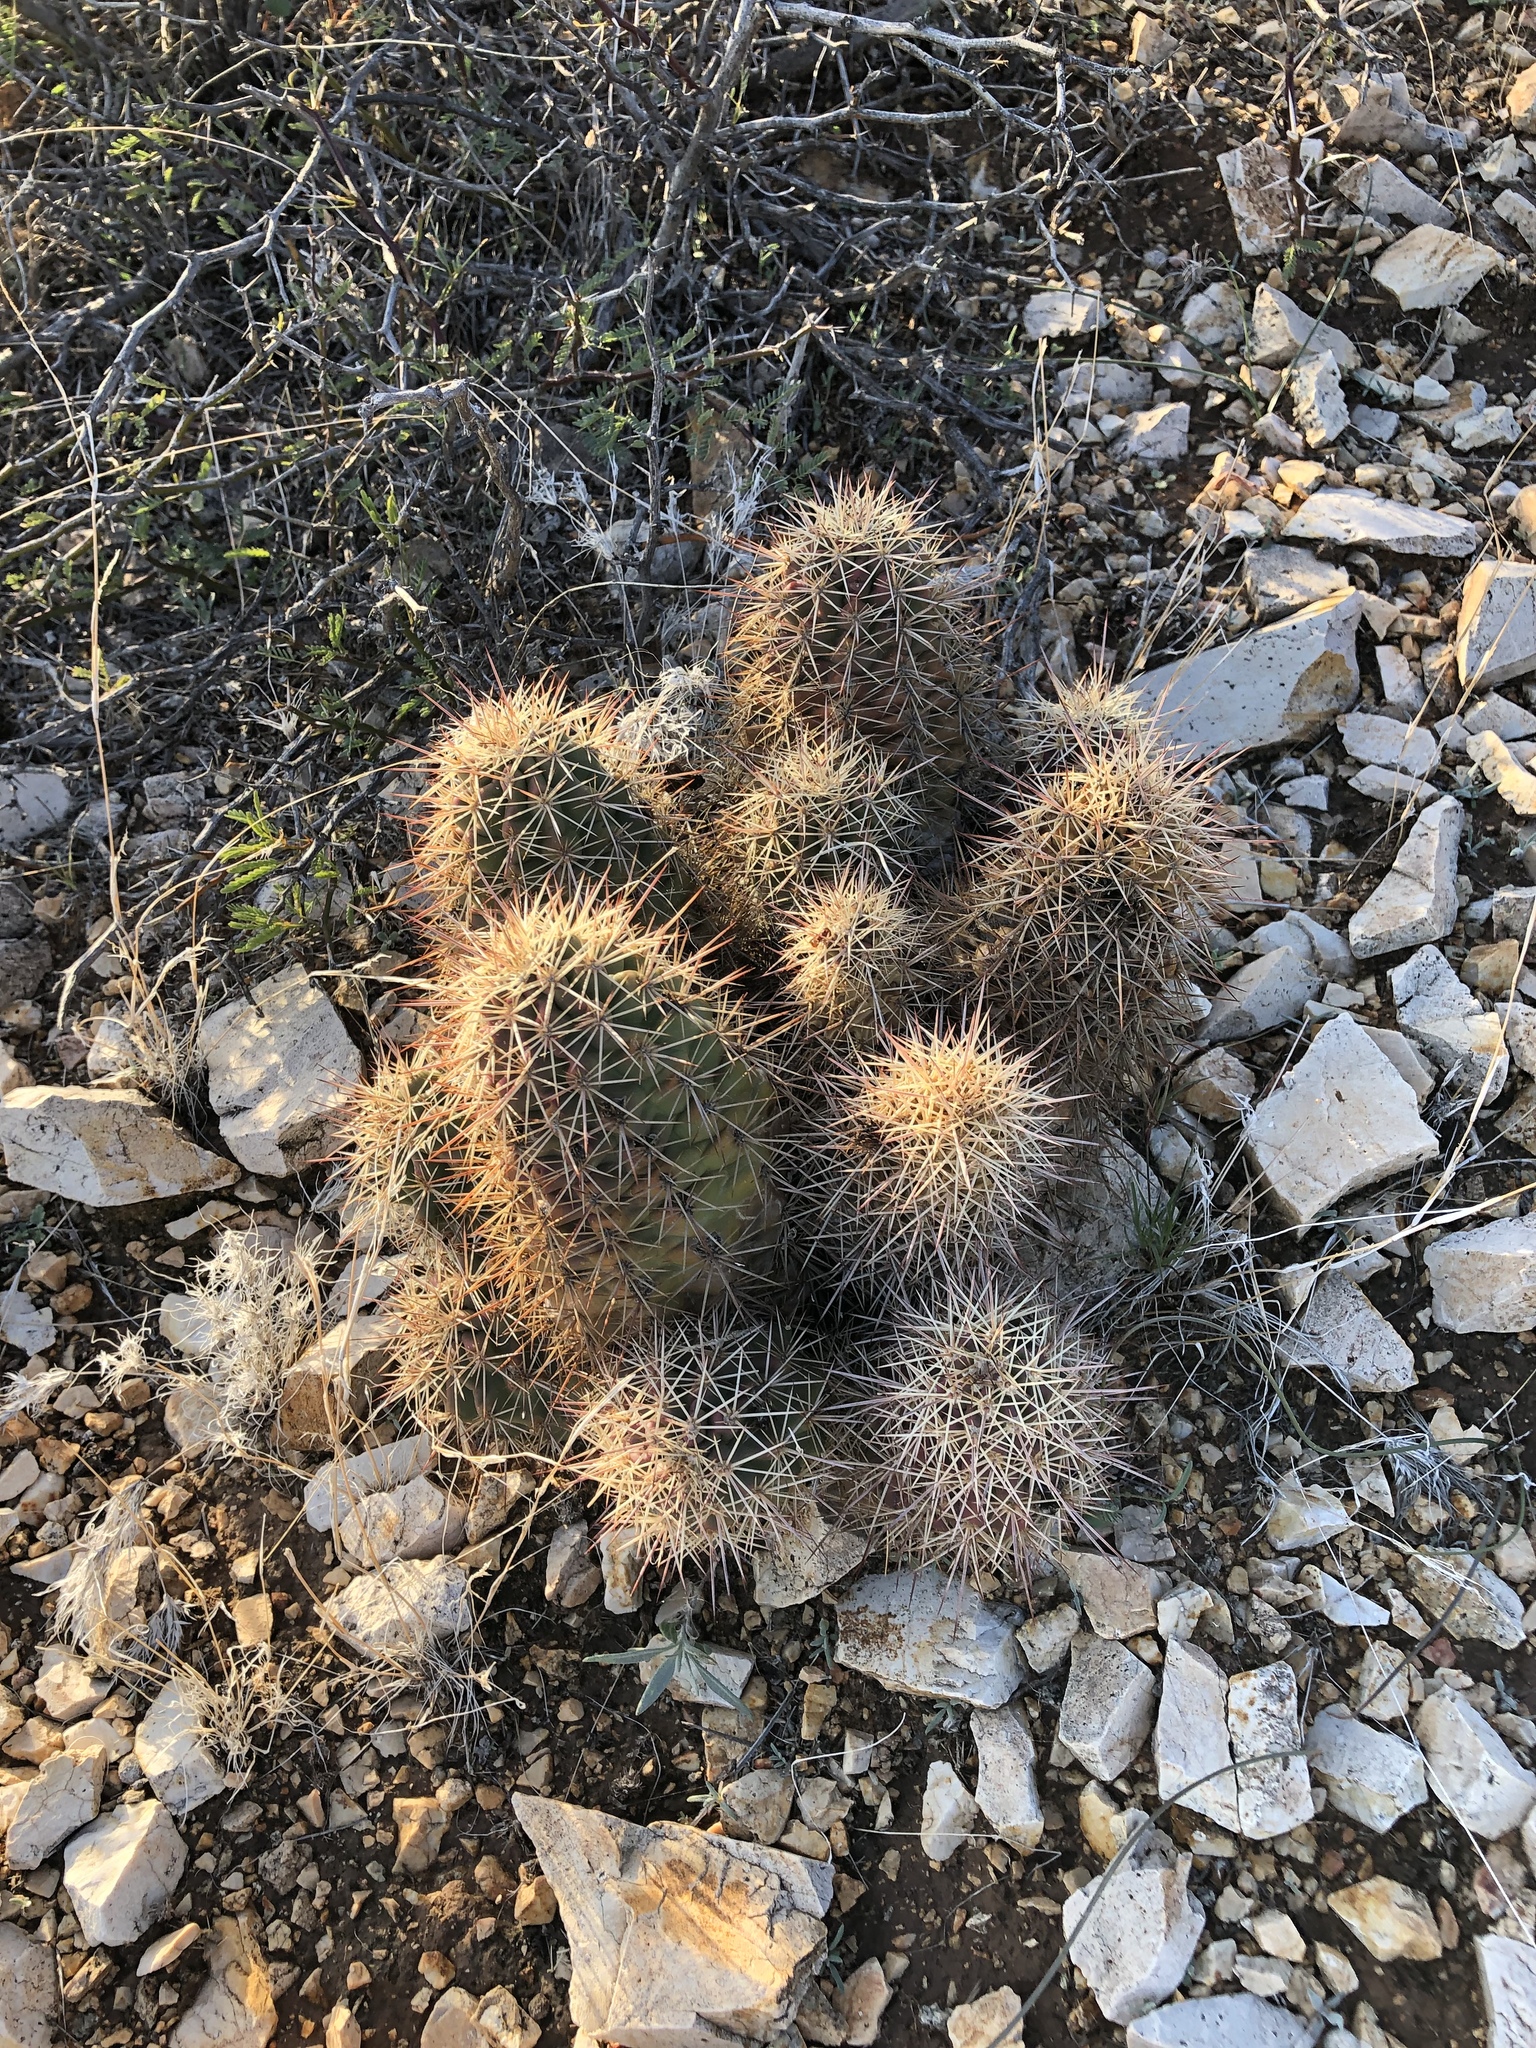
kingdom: Plantae
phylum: Tracheophyta
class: Magnoliopsida
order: Caryophyllales
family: Cactaceae
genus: Echinocereus
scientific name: Echinocereus coccineus
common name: Scarlet hedgehog cactus
